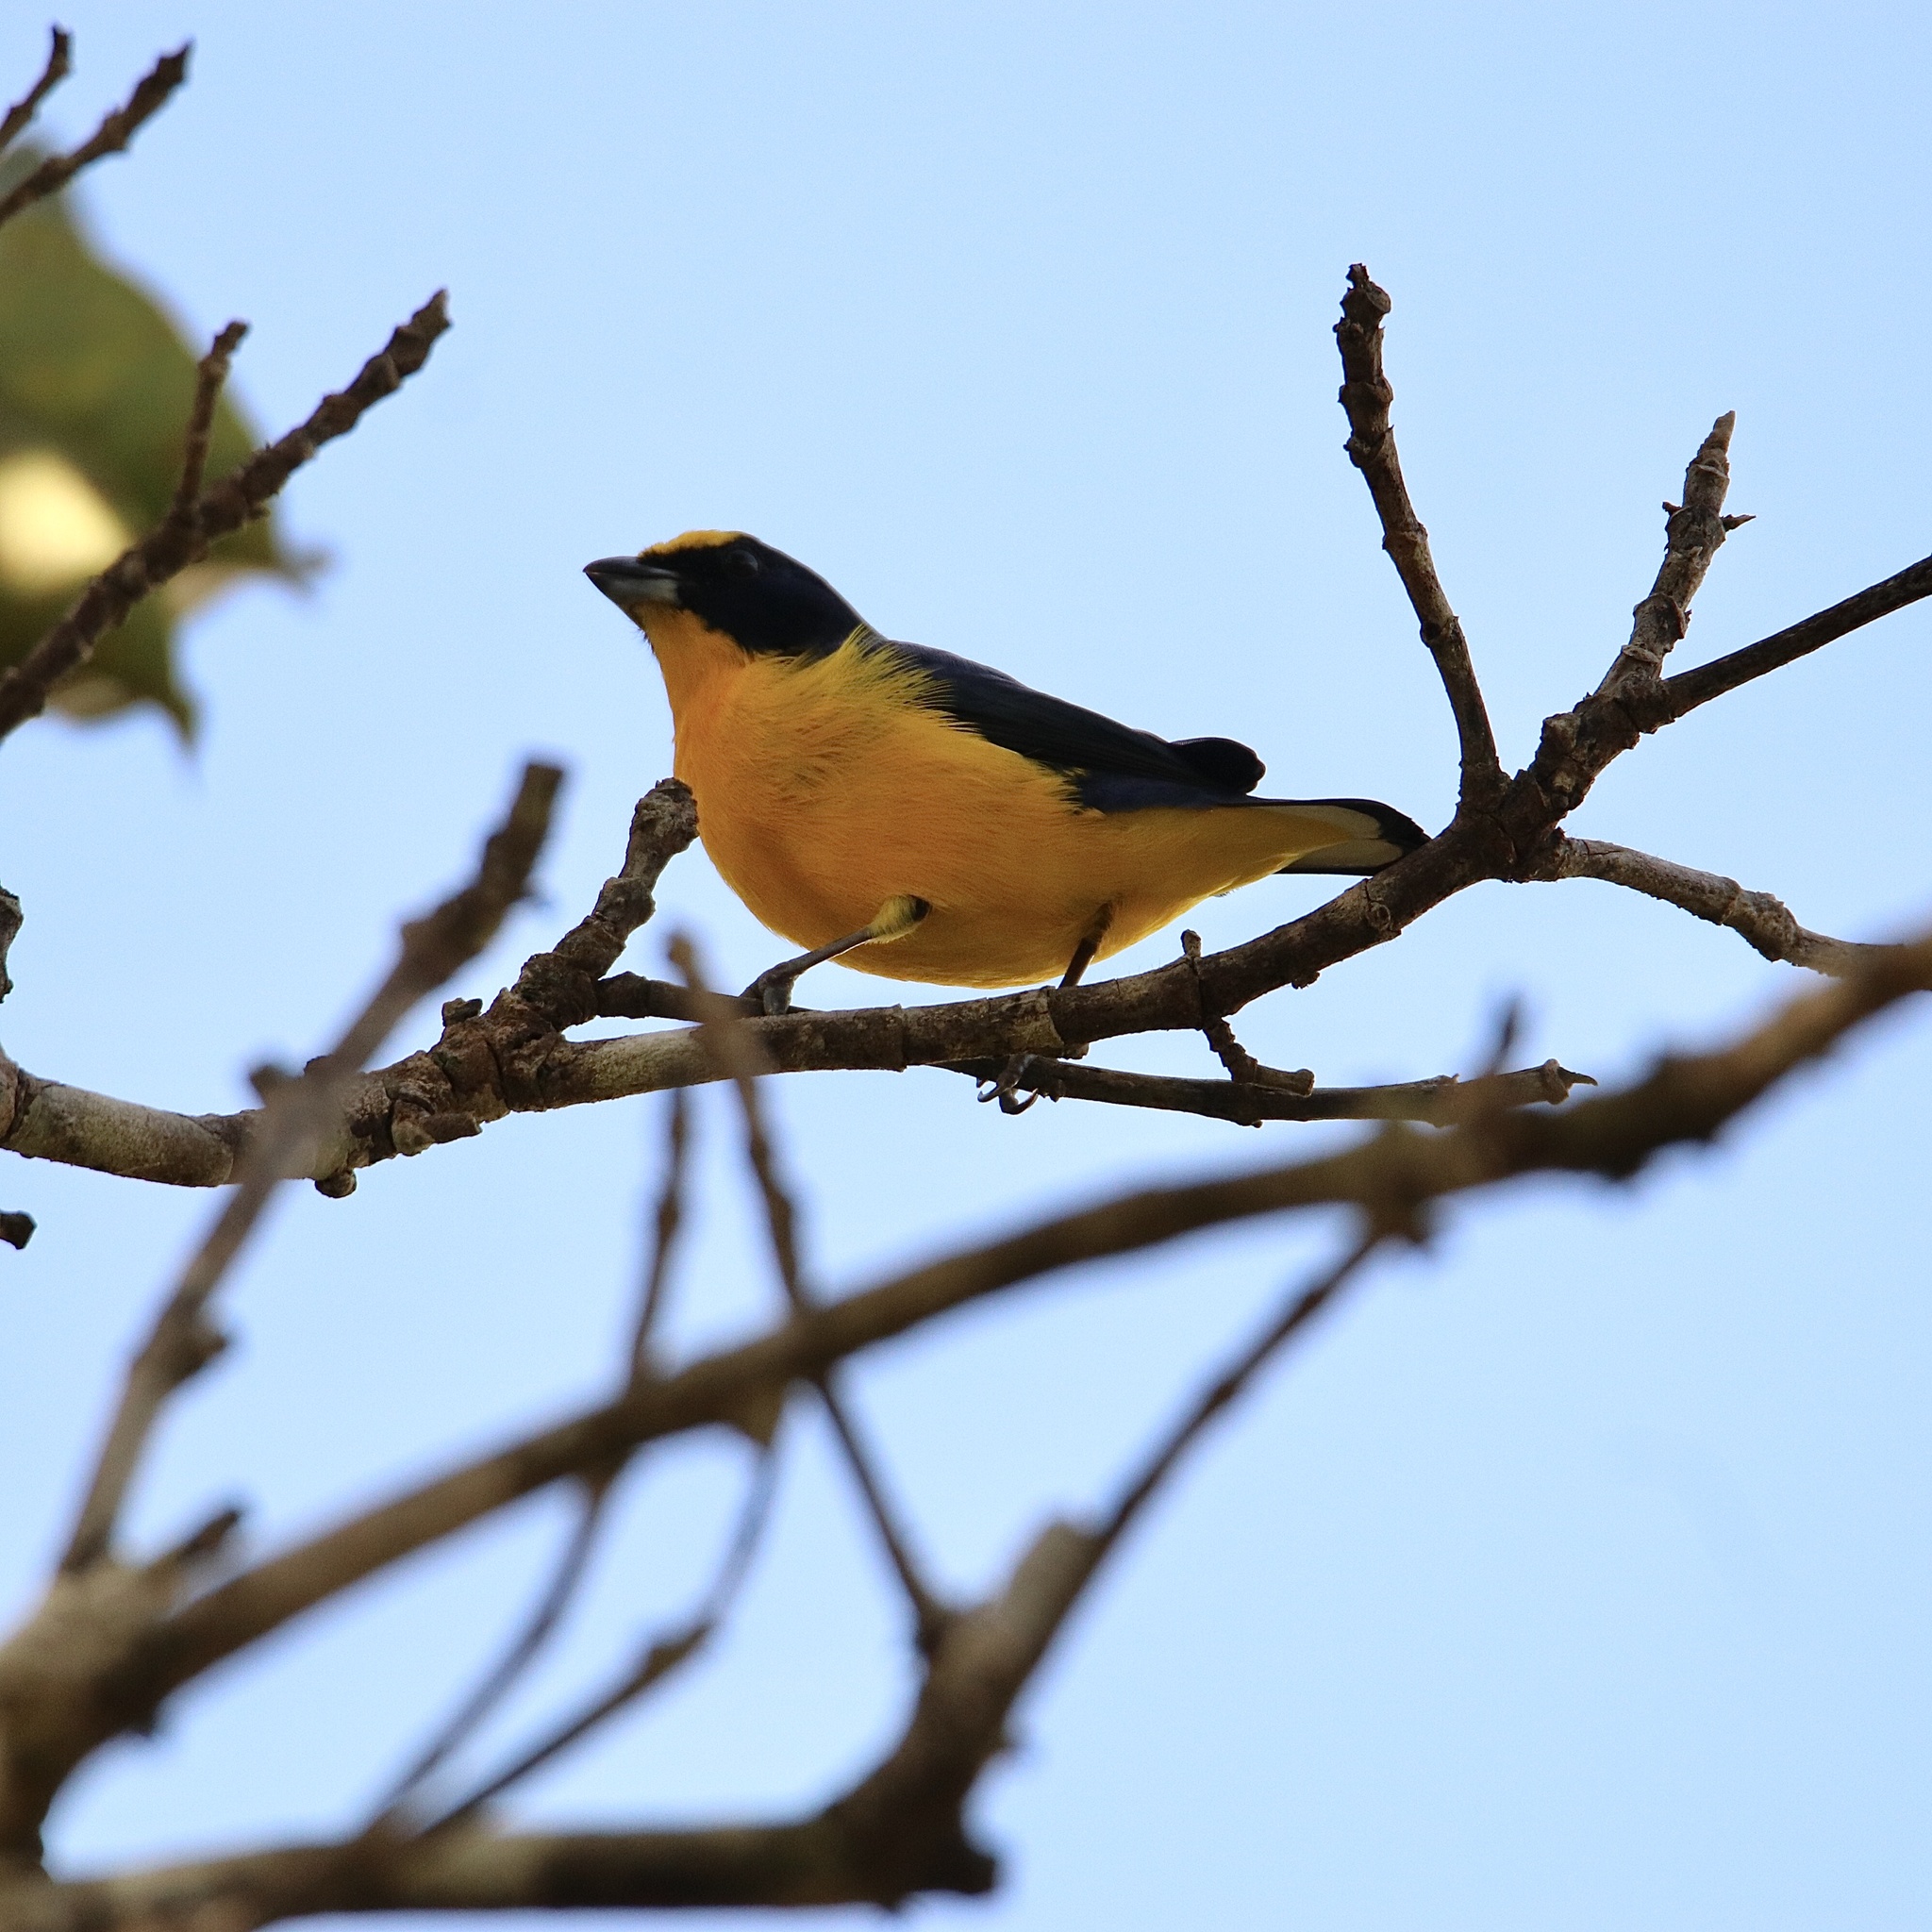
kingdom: Animalia
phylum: Chordata
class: Aves
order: Passeriformes
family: Fringillidae
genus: Euphonia
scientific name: Euphonia laniirostris
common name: Thick-billed euphonia
